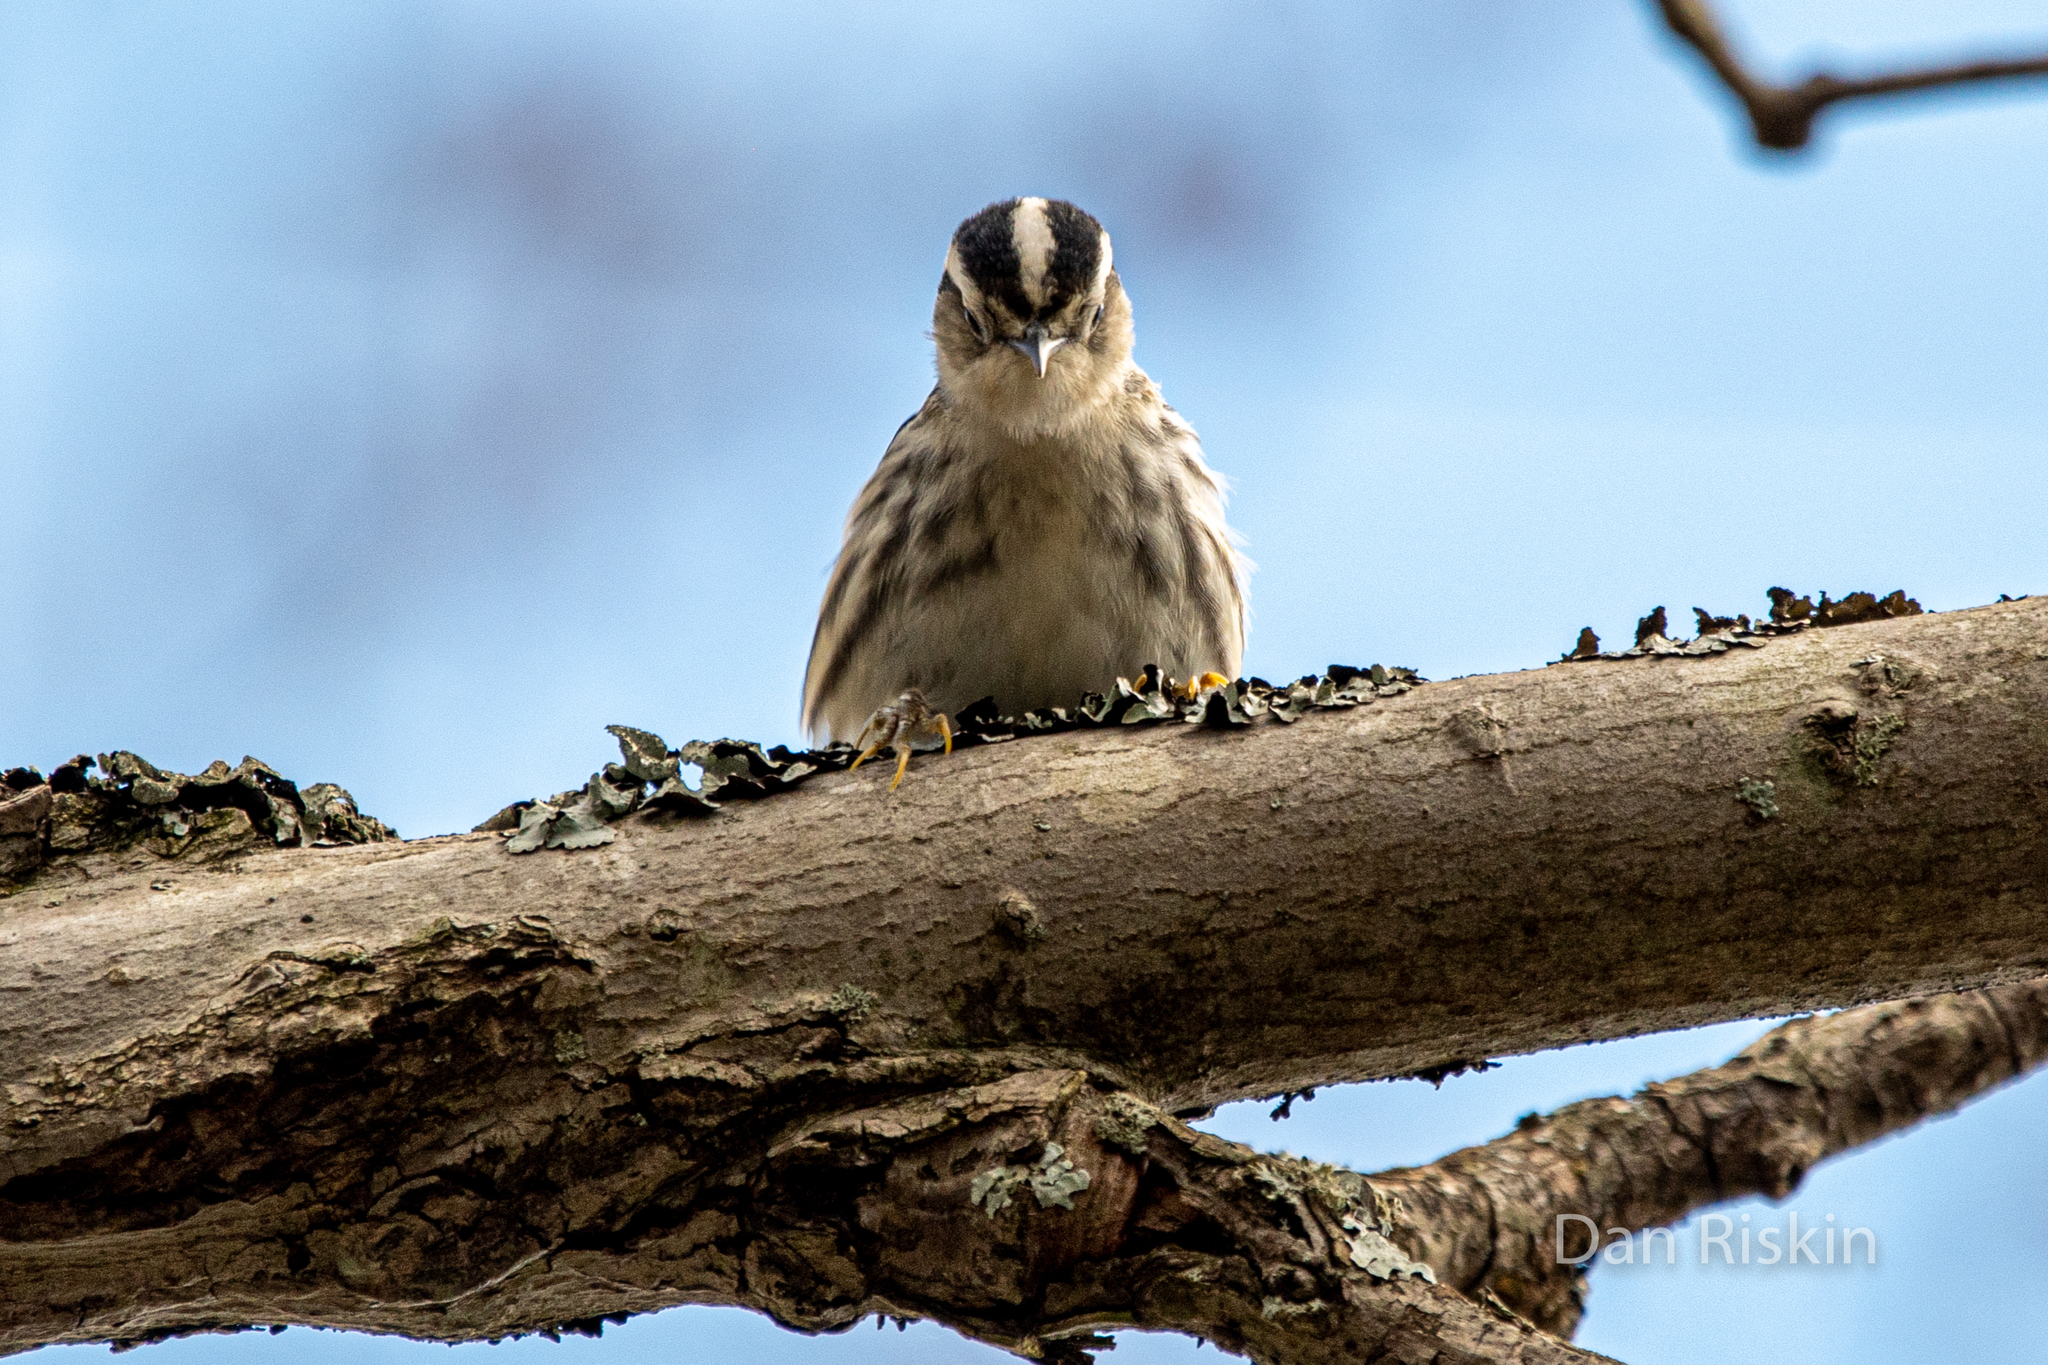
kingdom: Animalia
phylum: Chordata
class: Aves
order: Passeriformes
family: Parulidae
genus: Mniotilta
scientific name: Mniotilta varia
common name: Black-and-white warbler
